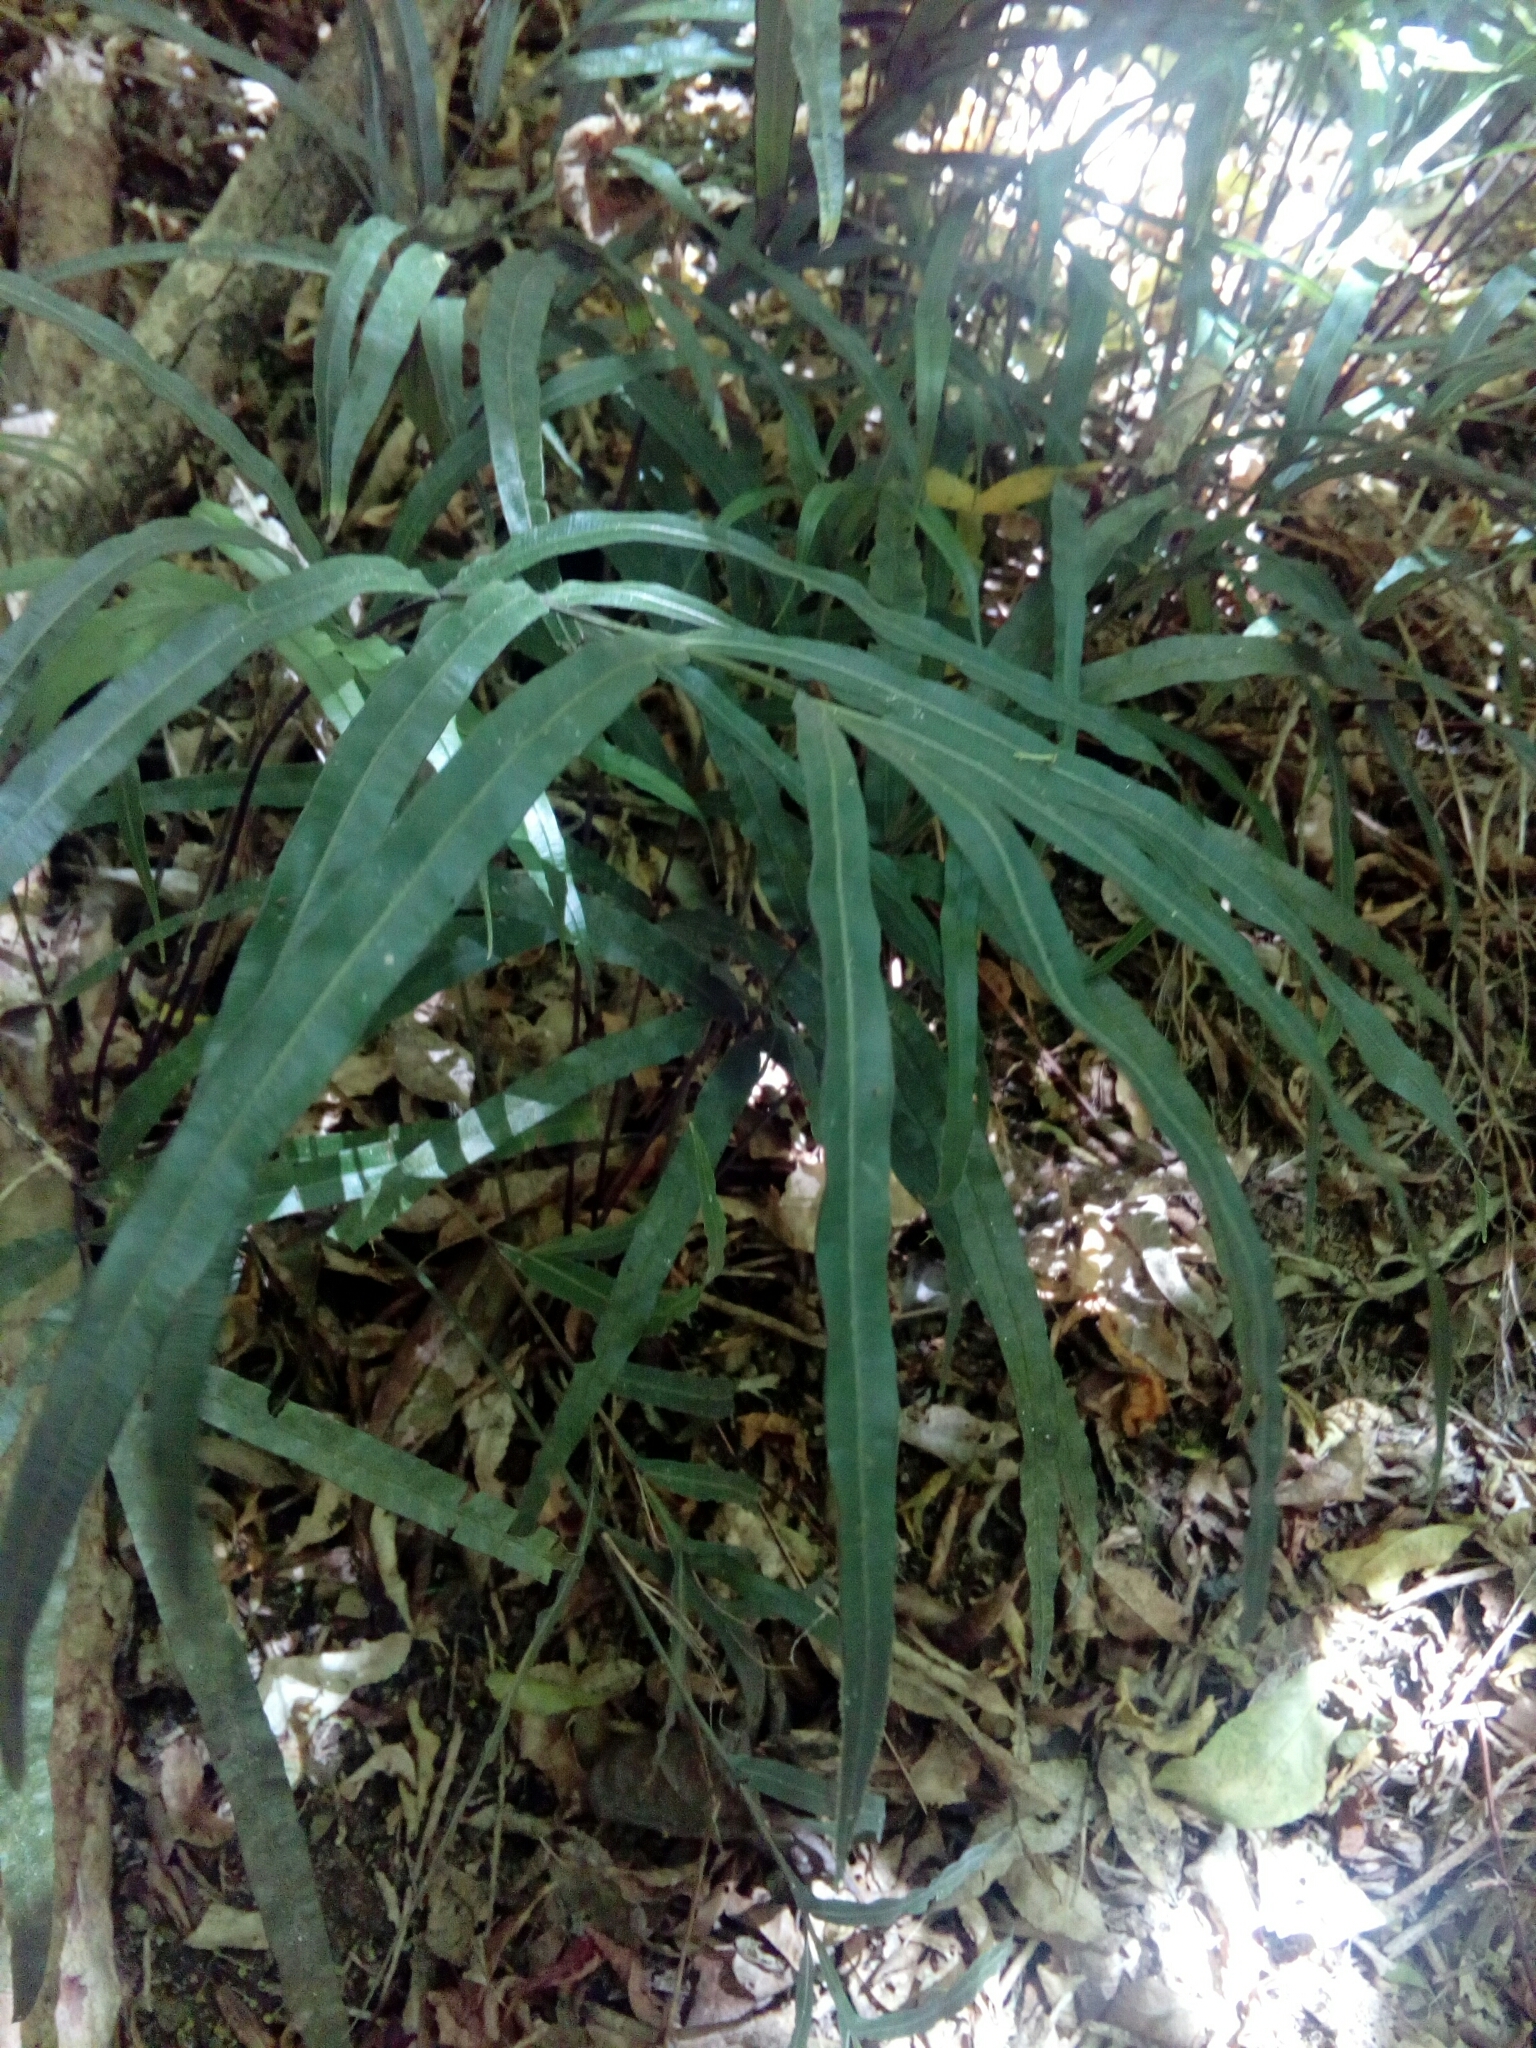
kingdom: Plantae
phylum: Tracheophyta
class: Polypodiopsida
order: Polypodiales
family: Pteridaceae
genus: Pteris
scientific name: Pteris cretica
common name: Ribbon fern
